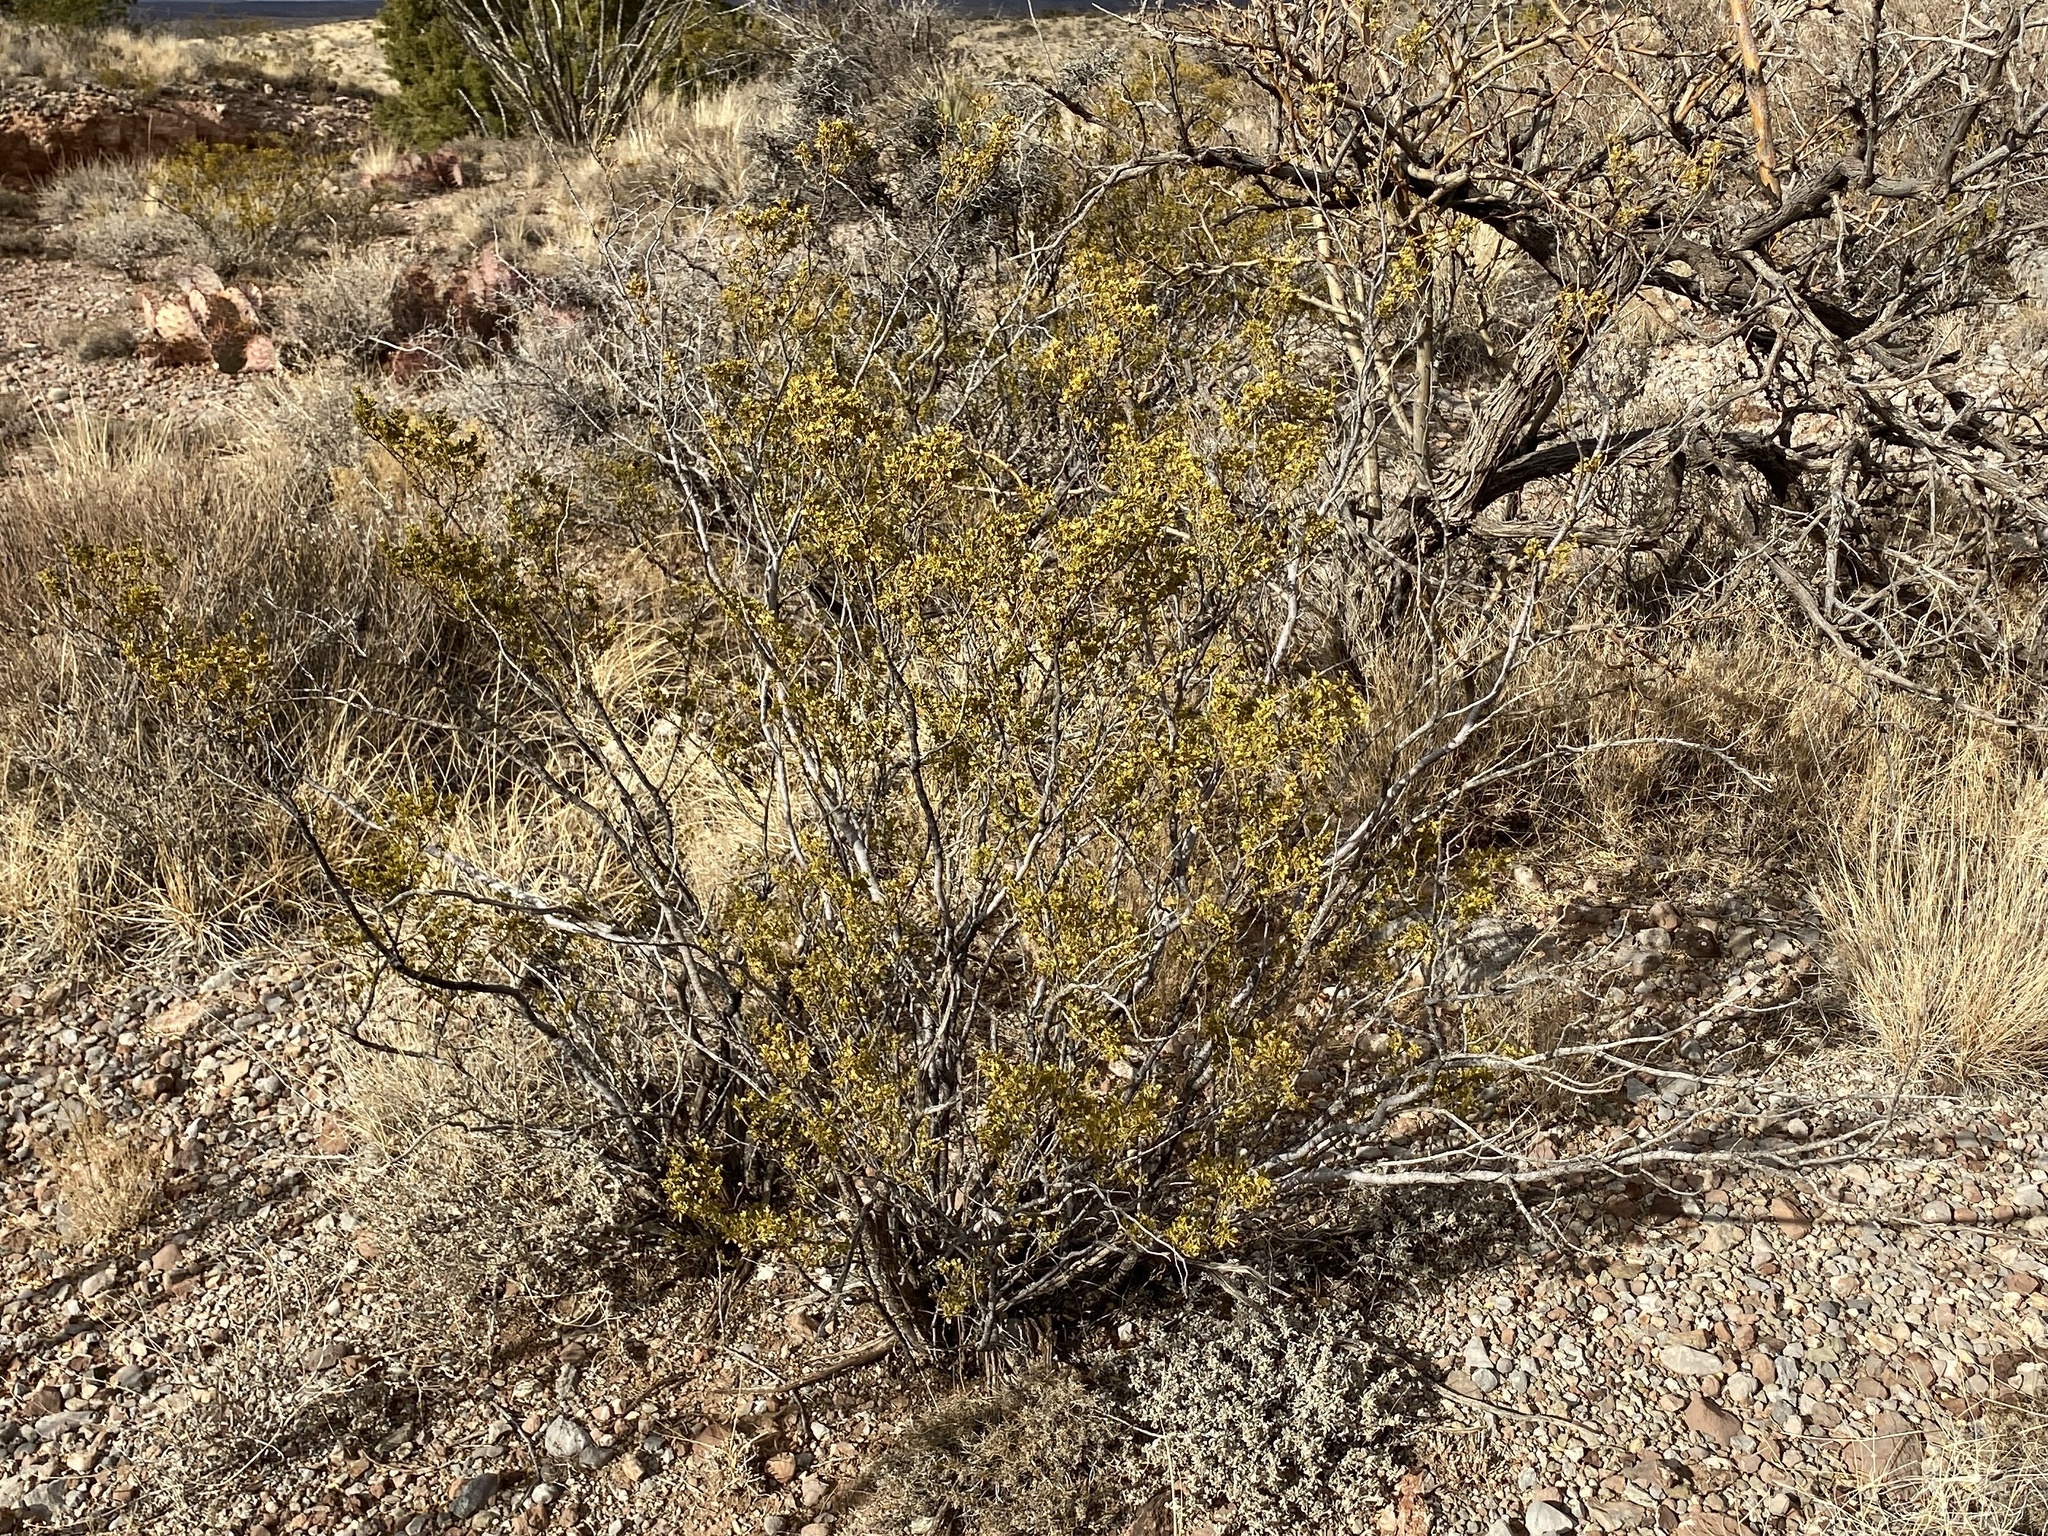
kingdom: Plantae
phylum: Tracheophyta
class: Magnoliopsida
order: Zygophyllales
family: Zygophyllaceae
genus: Larrea
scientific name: Larrea tridentata
